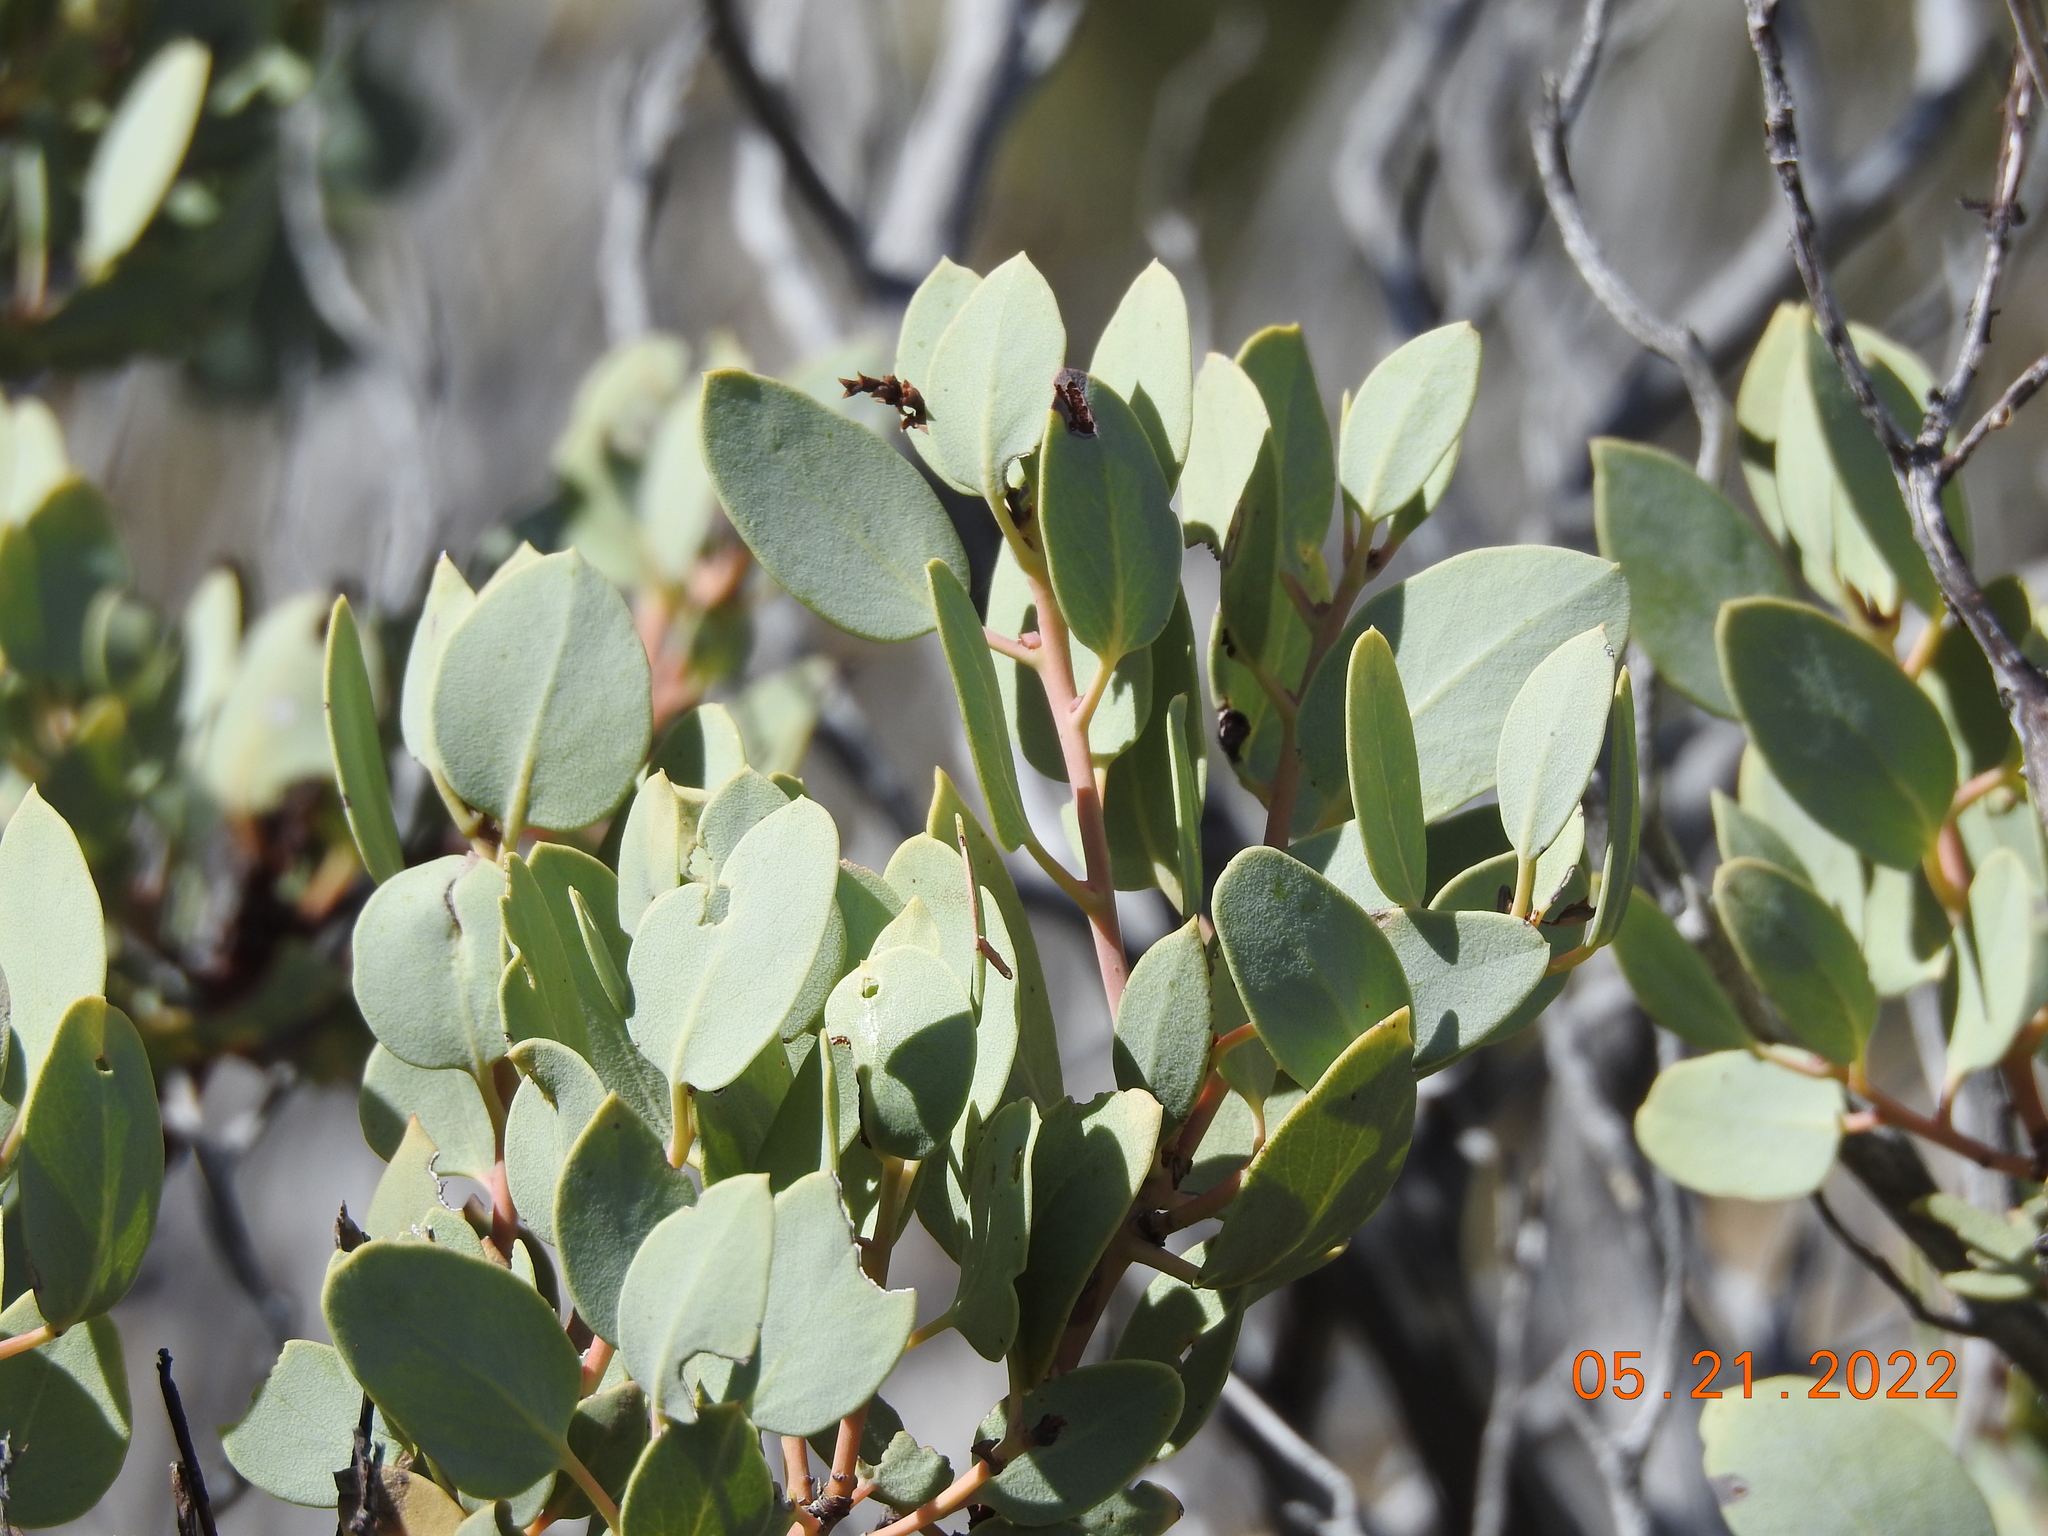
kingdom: Plantae
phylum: Tracheophyta
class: Magnoliopsida
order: Ericales
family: Ericaceae
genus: Arctostaphylos
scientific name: Arctostaphylos glauca
